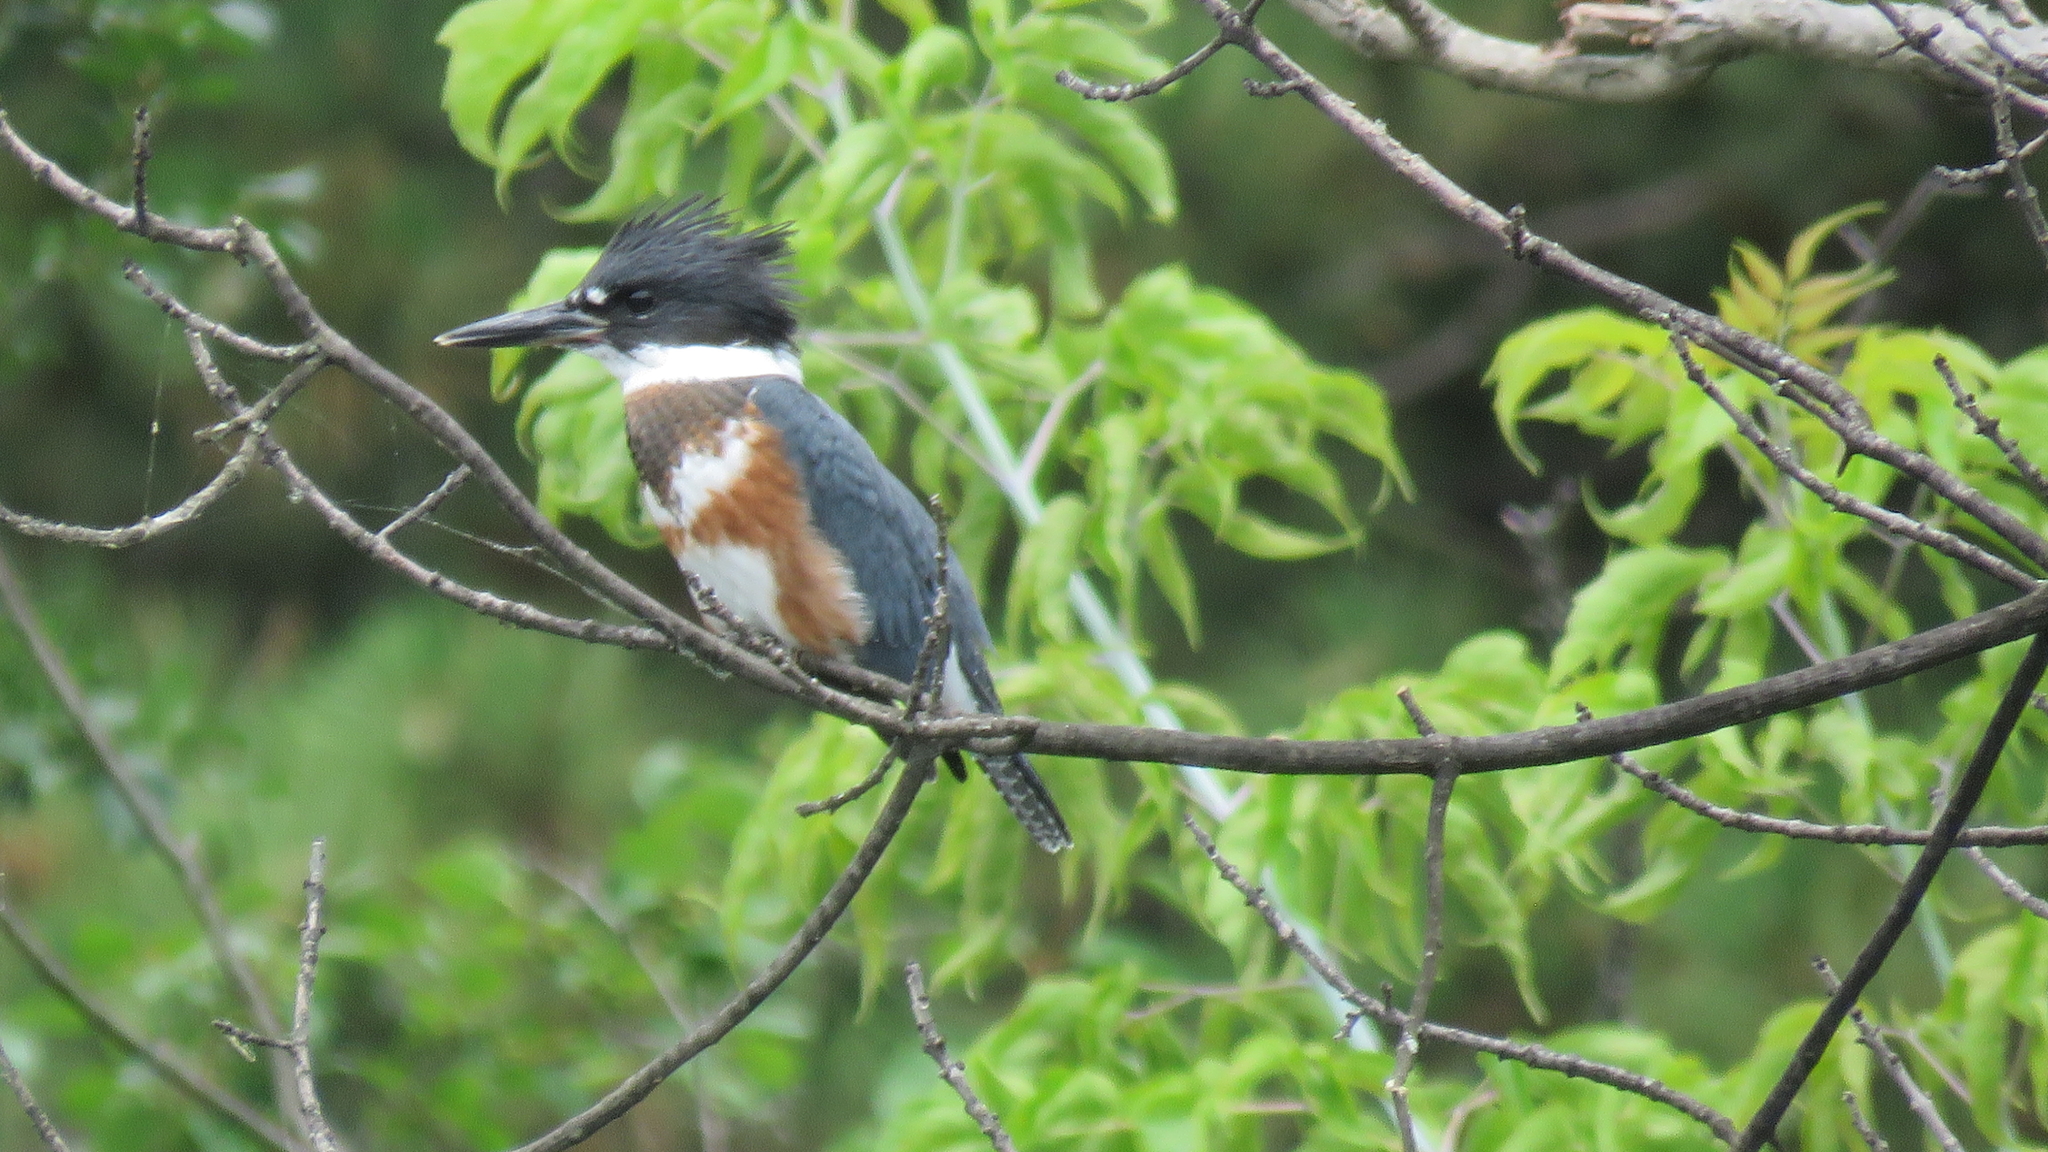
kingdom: Animalia
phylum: Chordata
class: Aves
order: Coraciiformes
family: Alcedinidae
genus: Megaceryle
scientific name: Megaceryle alcyon
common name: Belted kingfisher
